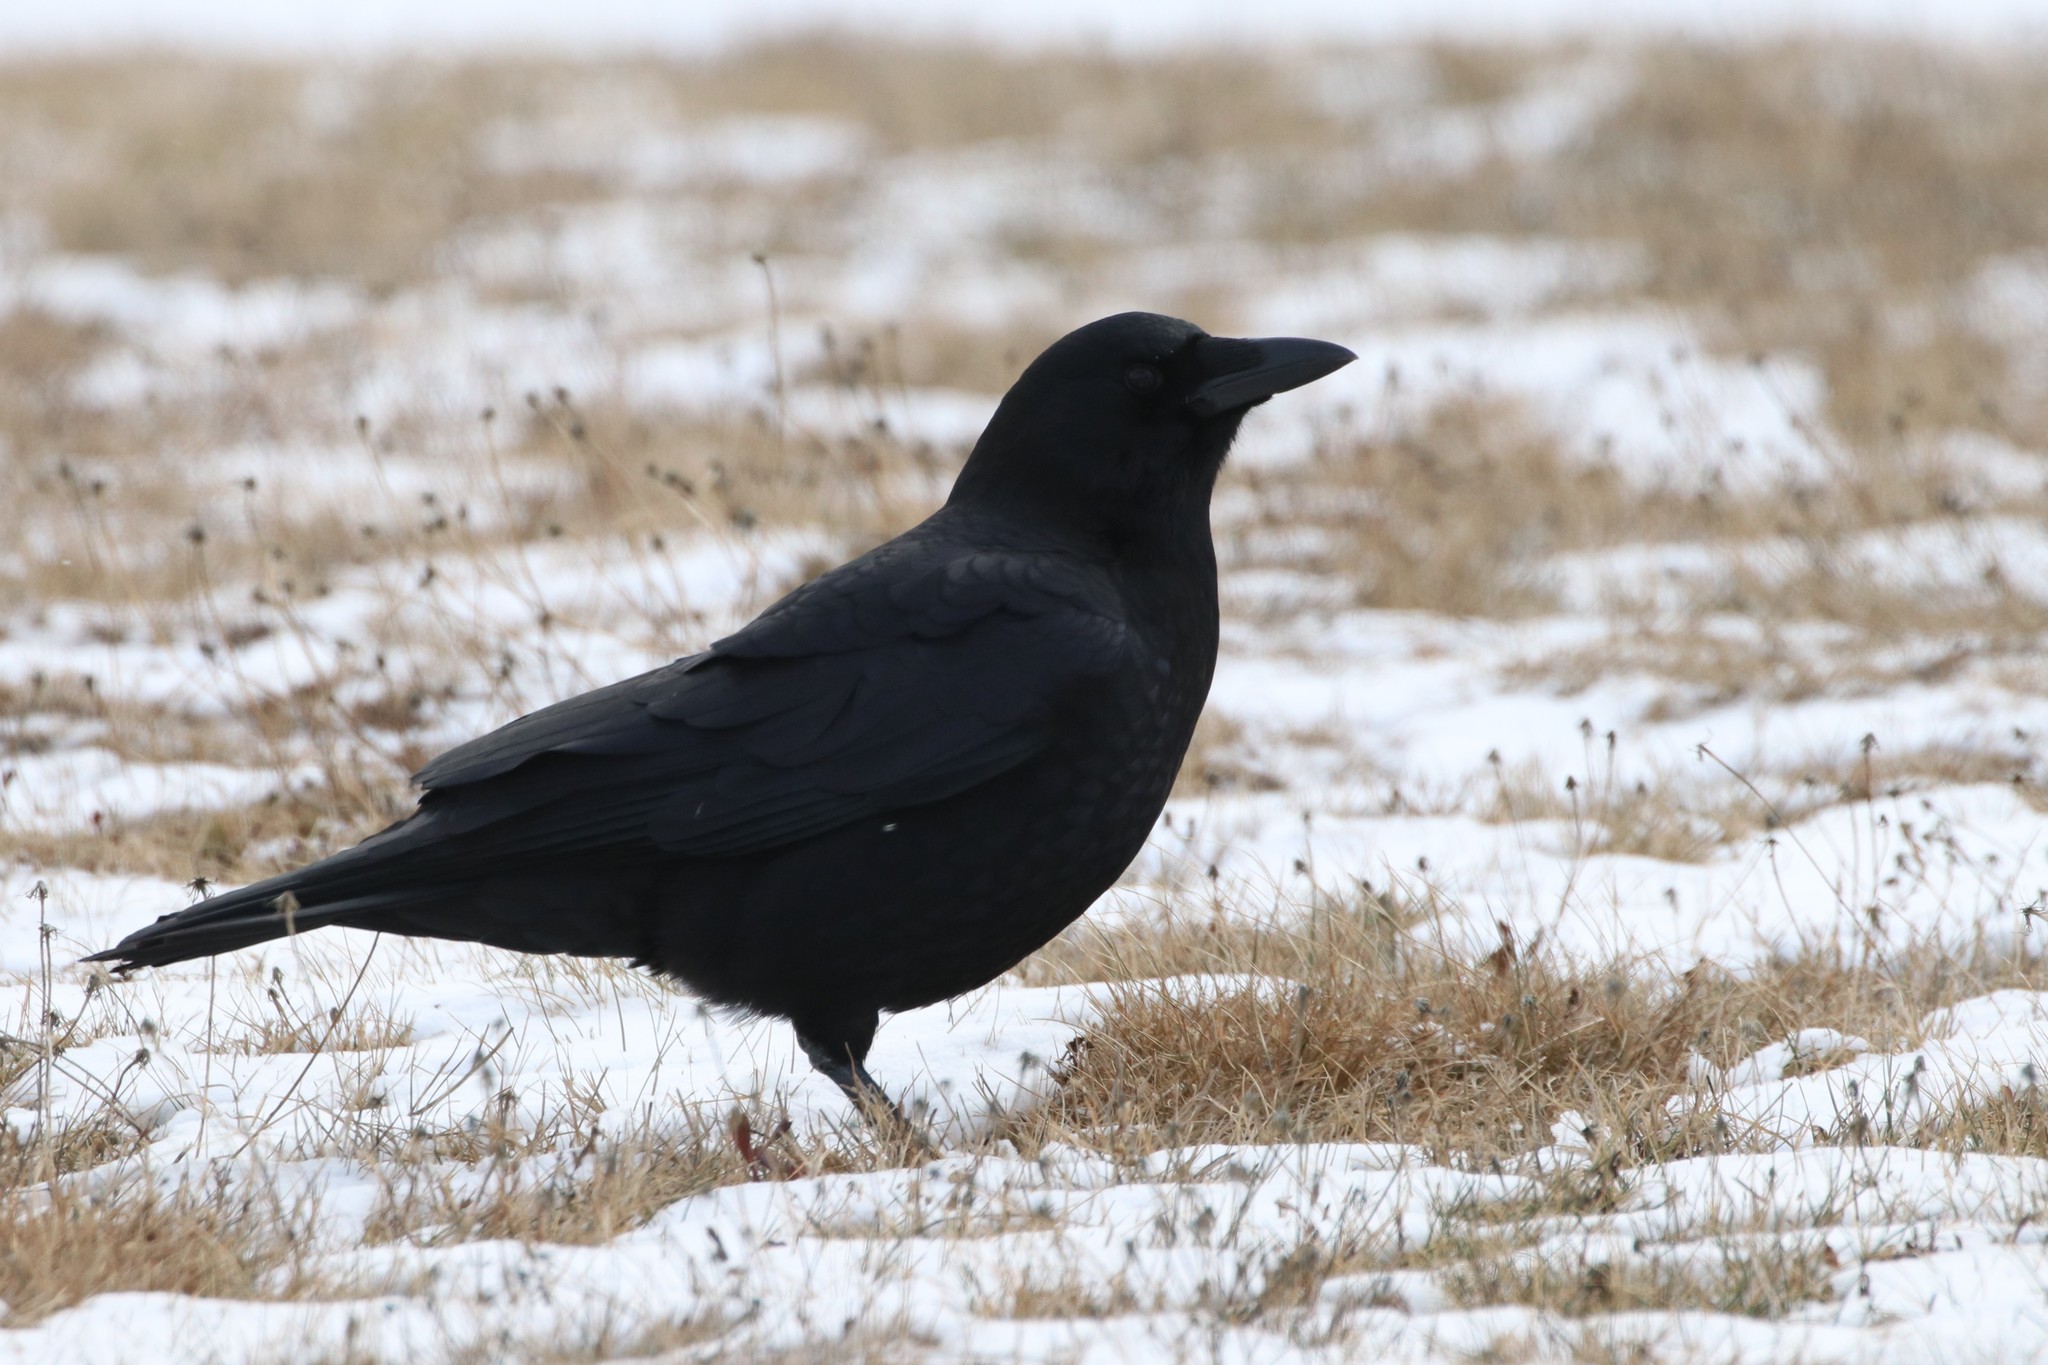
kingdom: Animalia
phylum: Chordata
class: Aves
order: Passeriformes
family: Corvidae
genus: Corvus
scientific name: Corvus brachyrhynchos
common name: American crow
